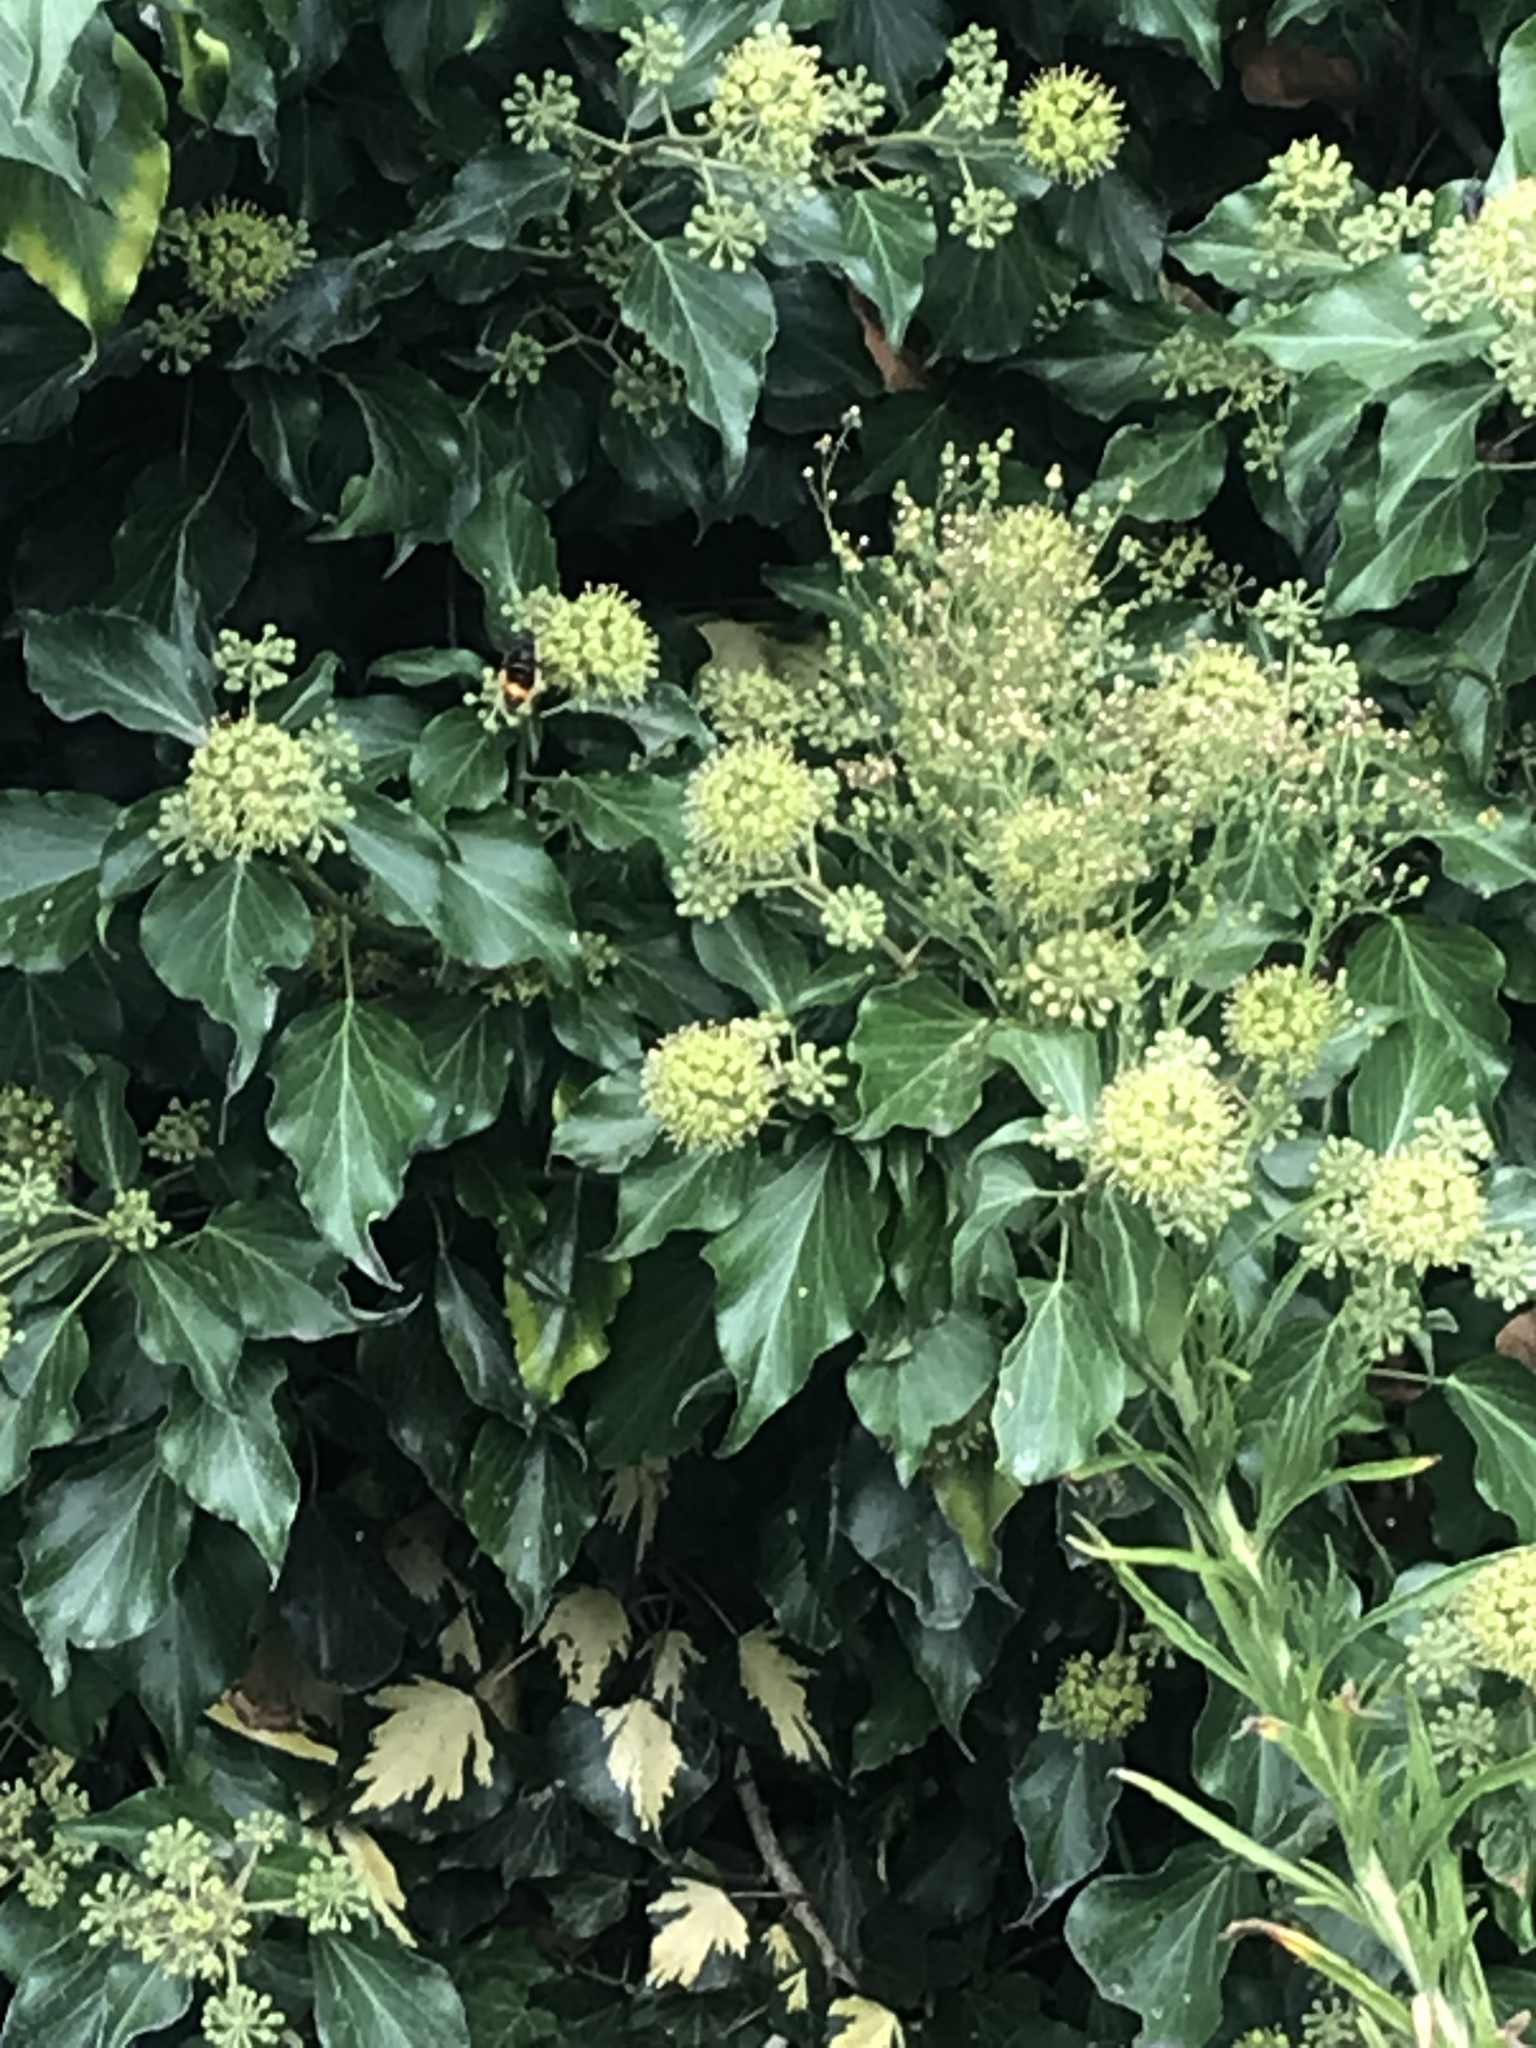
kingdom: Animalia
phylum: Arthropoda
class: Insecta
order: Hymenoptera
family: Vespidae
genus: Vespa
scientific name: Vespa velutina
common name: Asian hornet
